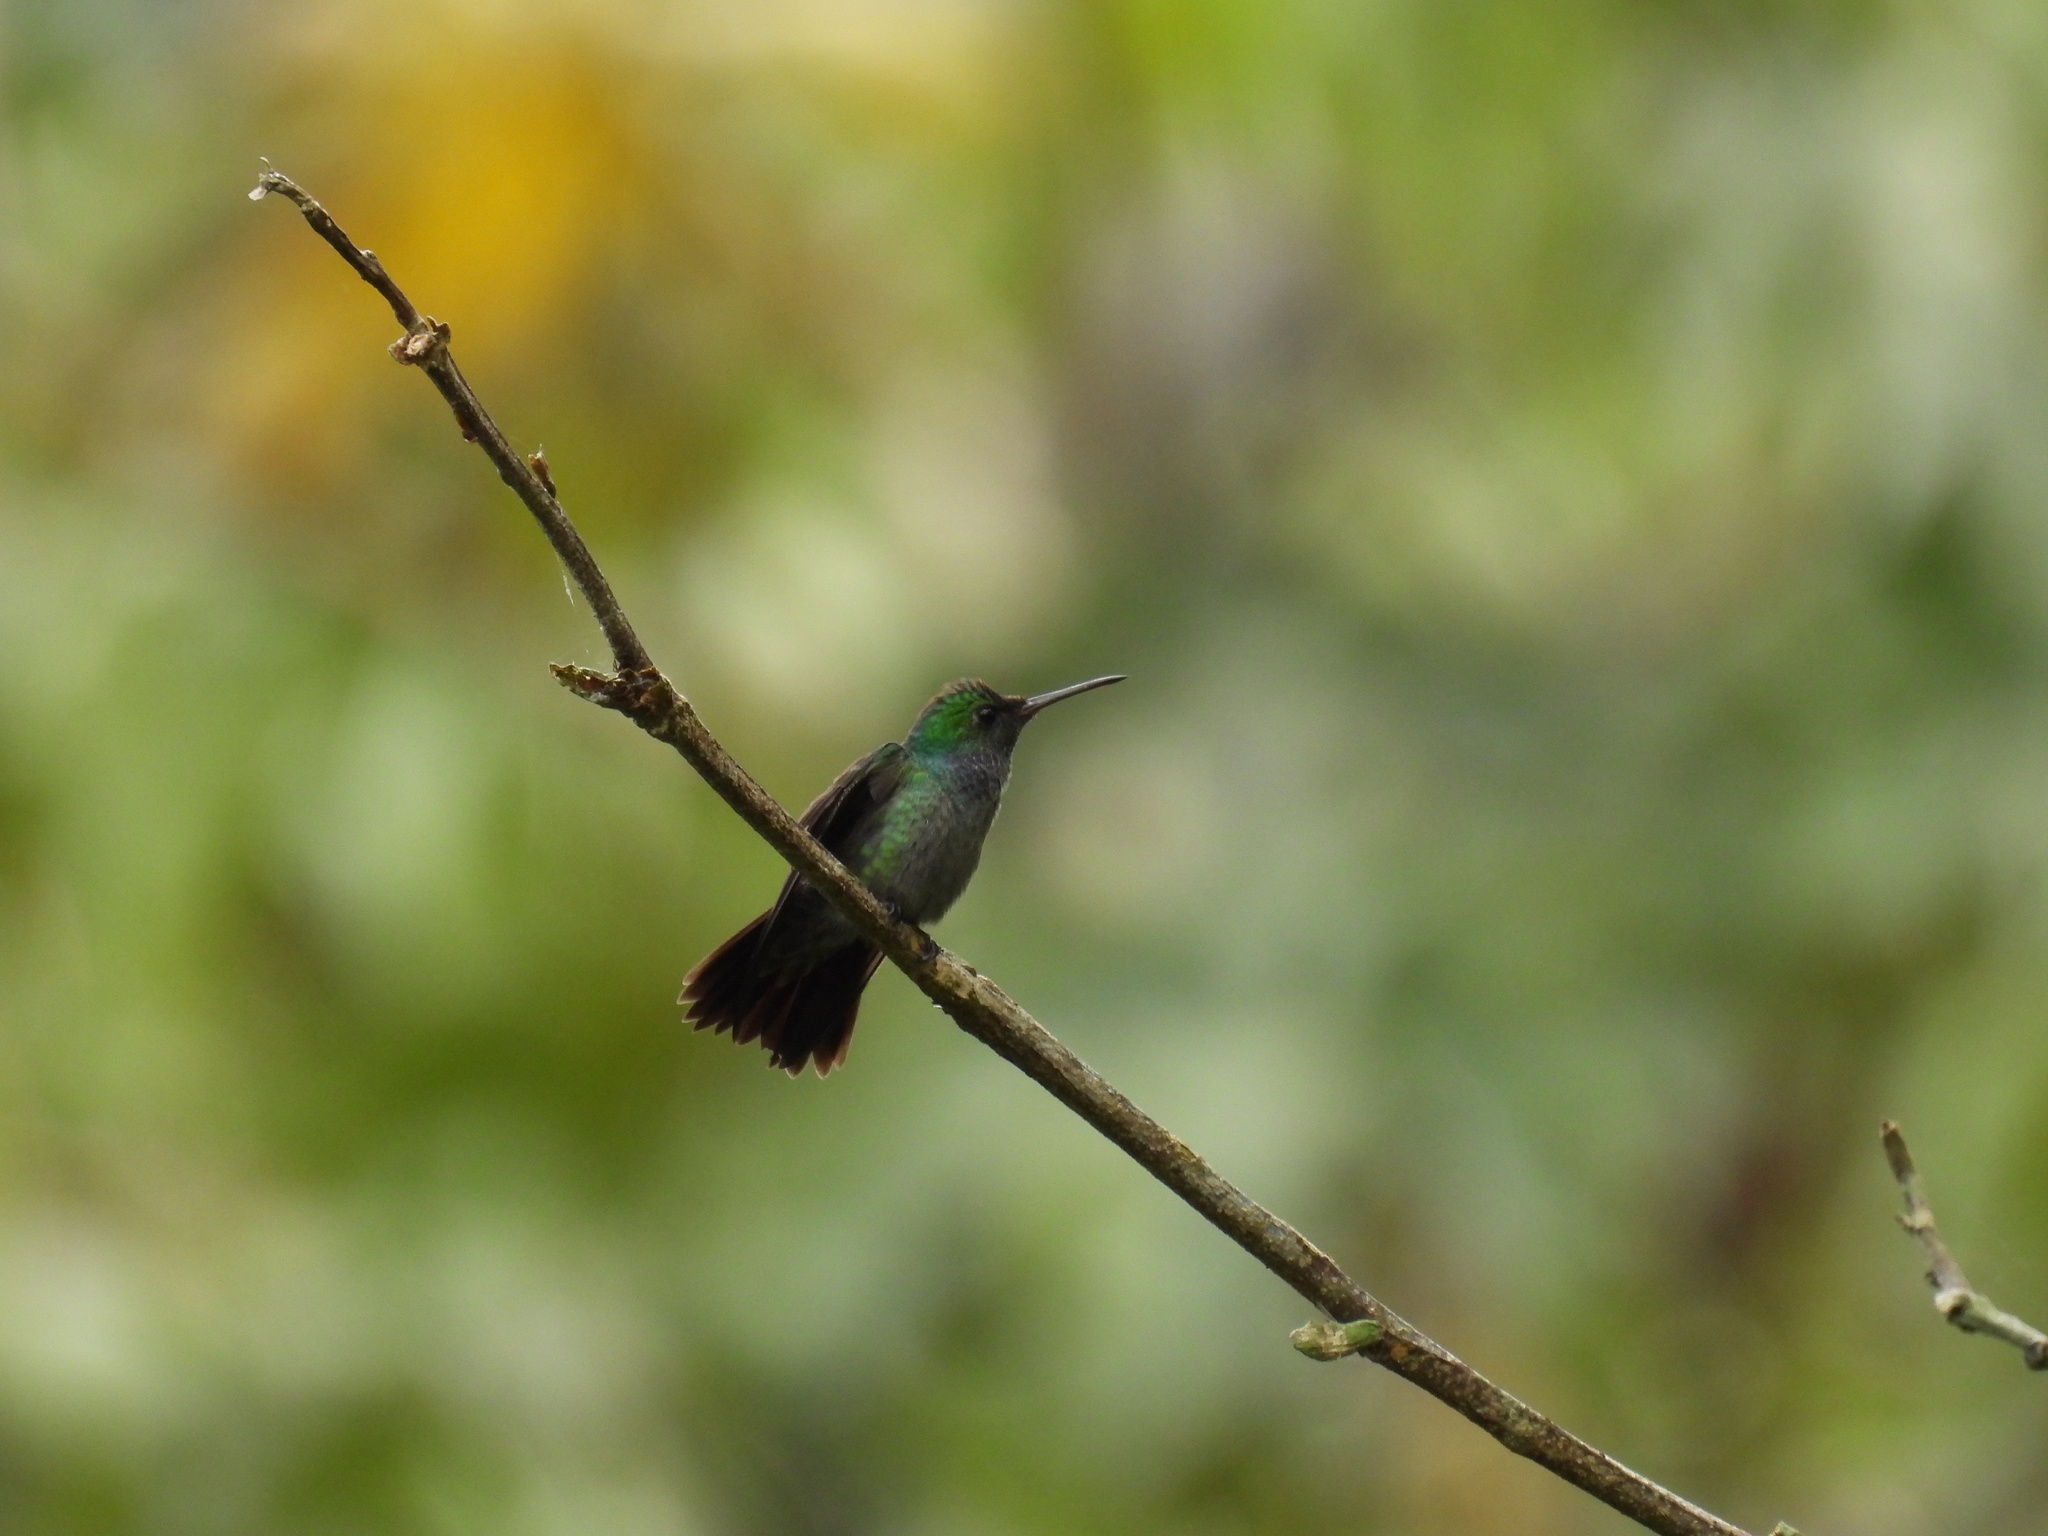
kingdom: Animalia
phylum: Chordata
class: Aves
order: Apodiformes
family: Trochilidae
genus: Polyerata
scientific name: Polyerata decora
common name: Charming hummingbird
